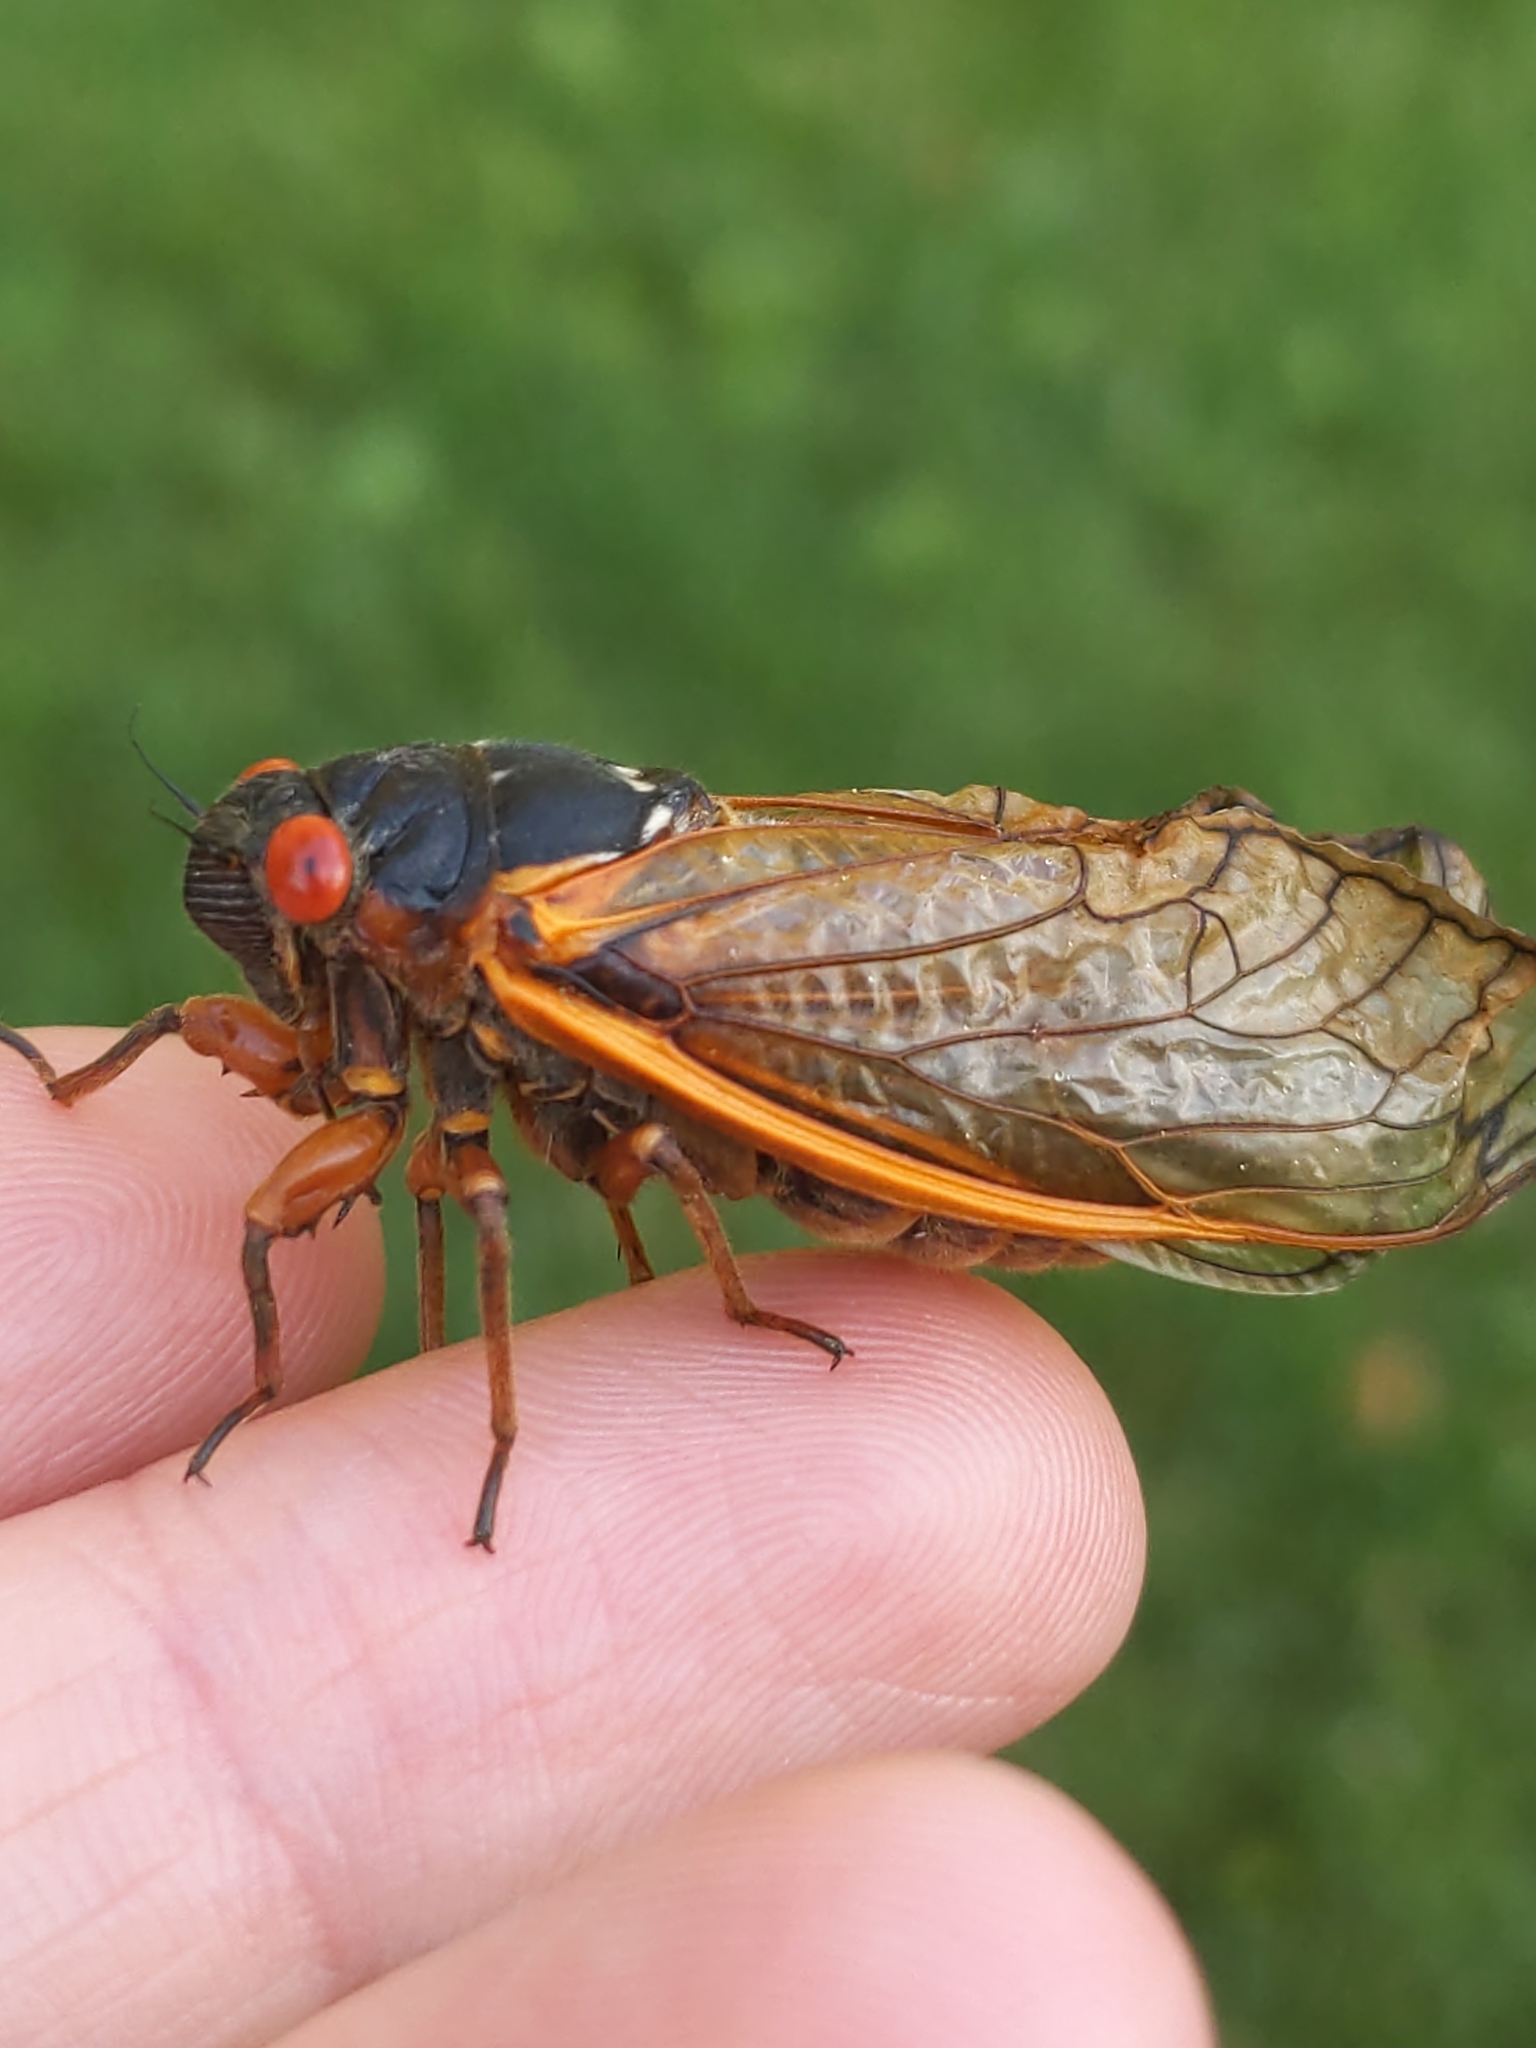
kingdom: Animalia
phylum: Arthropoda
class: Insecta
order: Hemiptera
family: Cicadidae
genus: Magicicada
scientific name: Magicicada septendecim
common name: Periodical cicada
